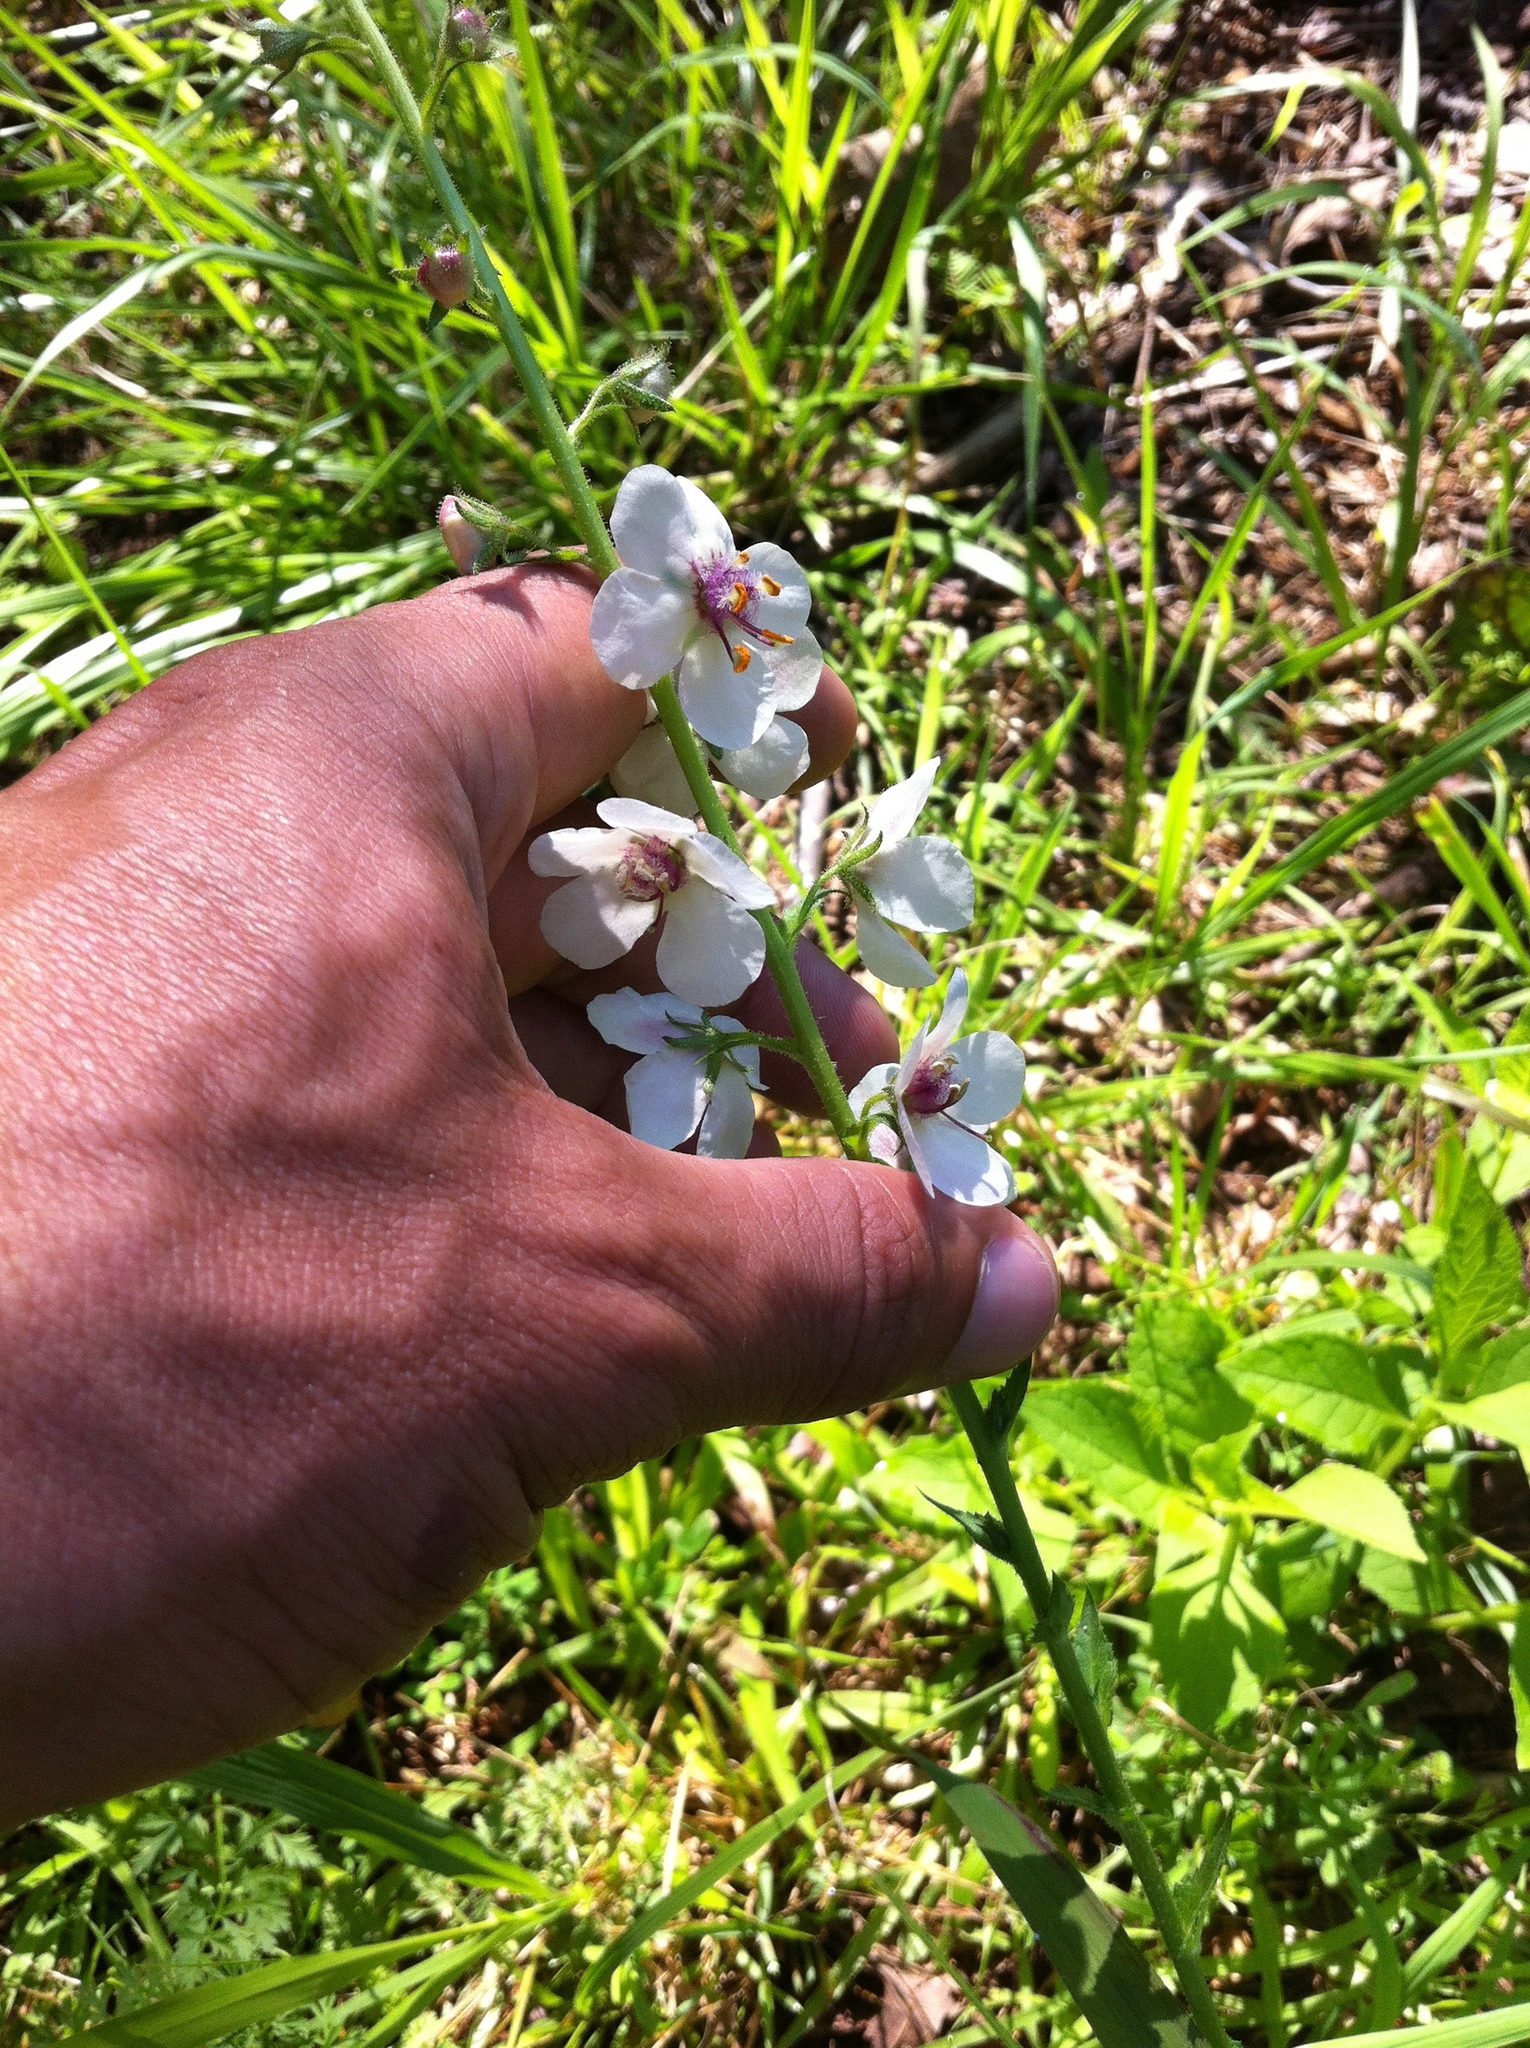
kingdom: Plantae
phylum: Tracheophyta
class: Magnoliopsida
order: Lamiales
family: Scrophulariaceae
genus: Verbascum
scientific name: Verbascum blattaria
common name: Moth mullein
